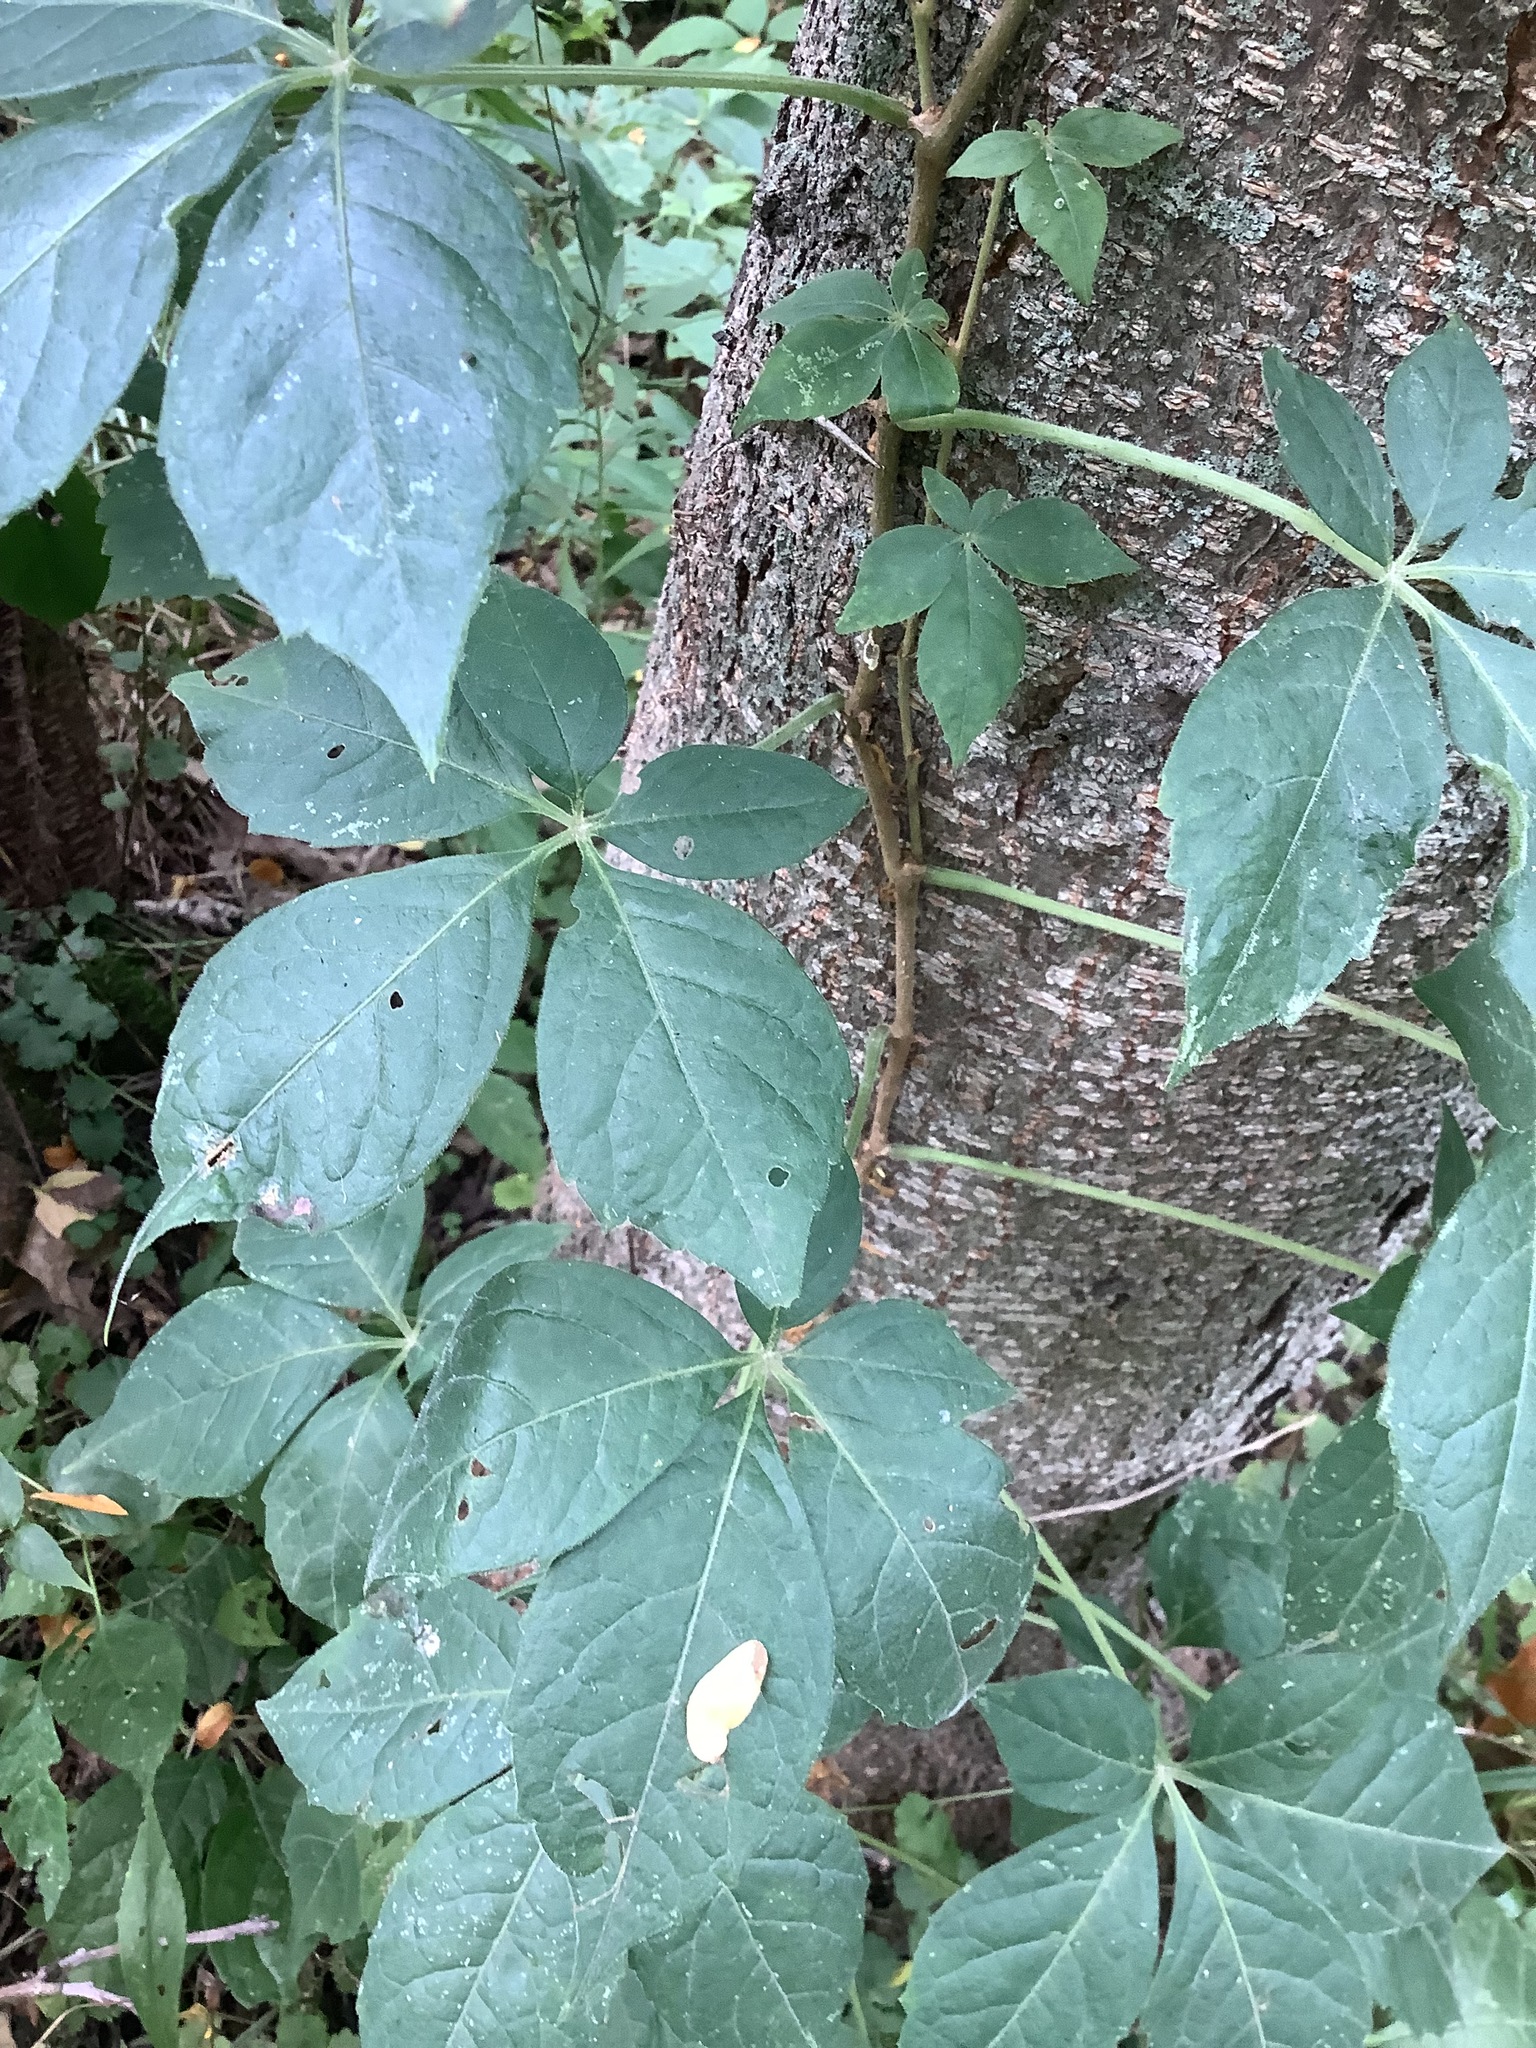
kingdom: Plantae
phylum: Tracheophyta
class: Magnoliopsida
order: Vitales
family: Vitaceae
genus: Parthenocissus
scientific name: Parthenocissus quinquefolia
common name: Virginia-creeper
